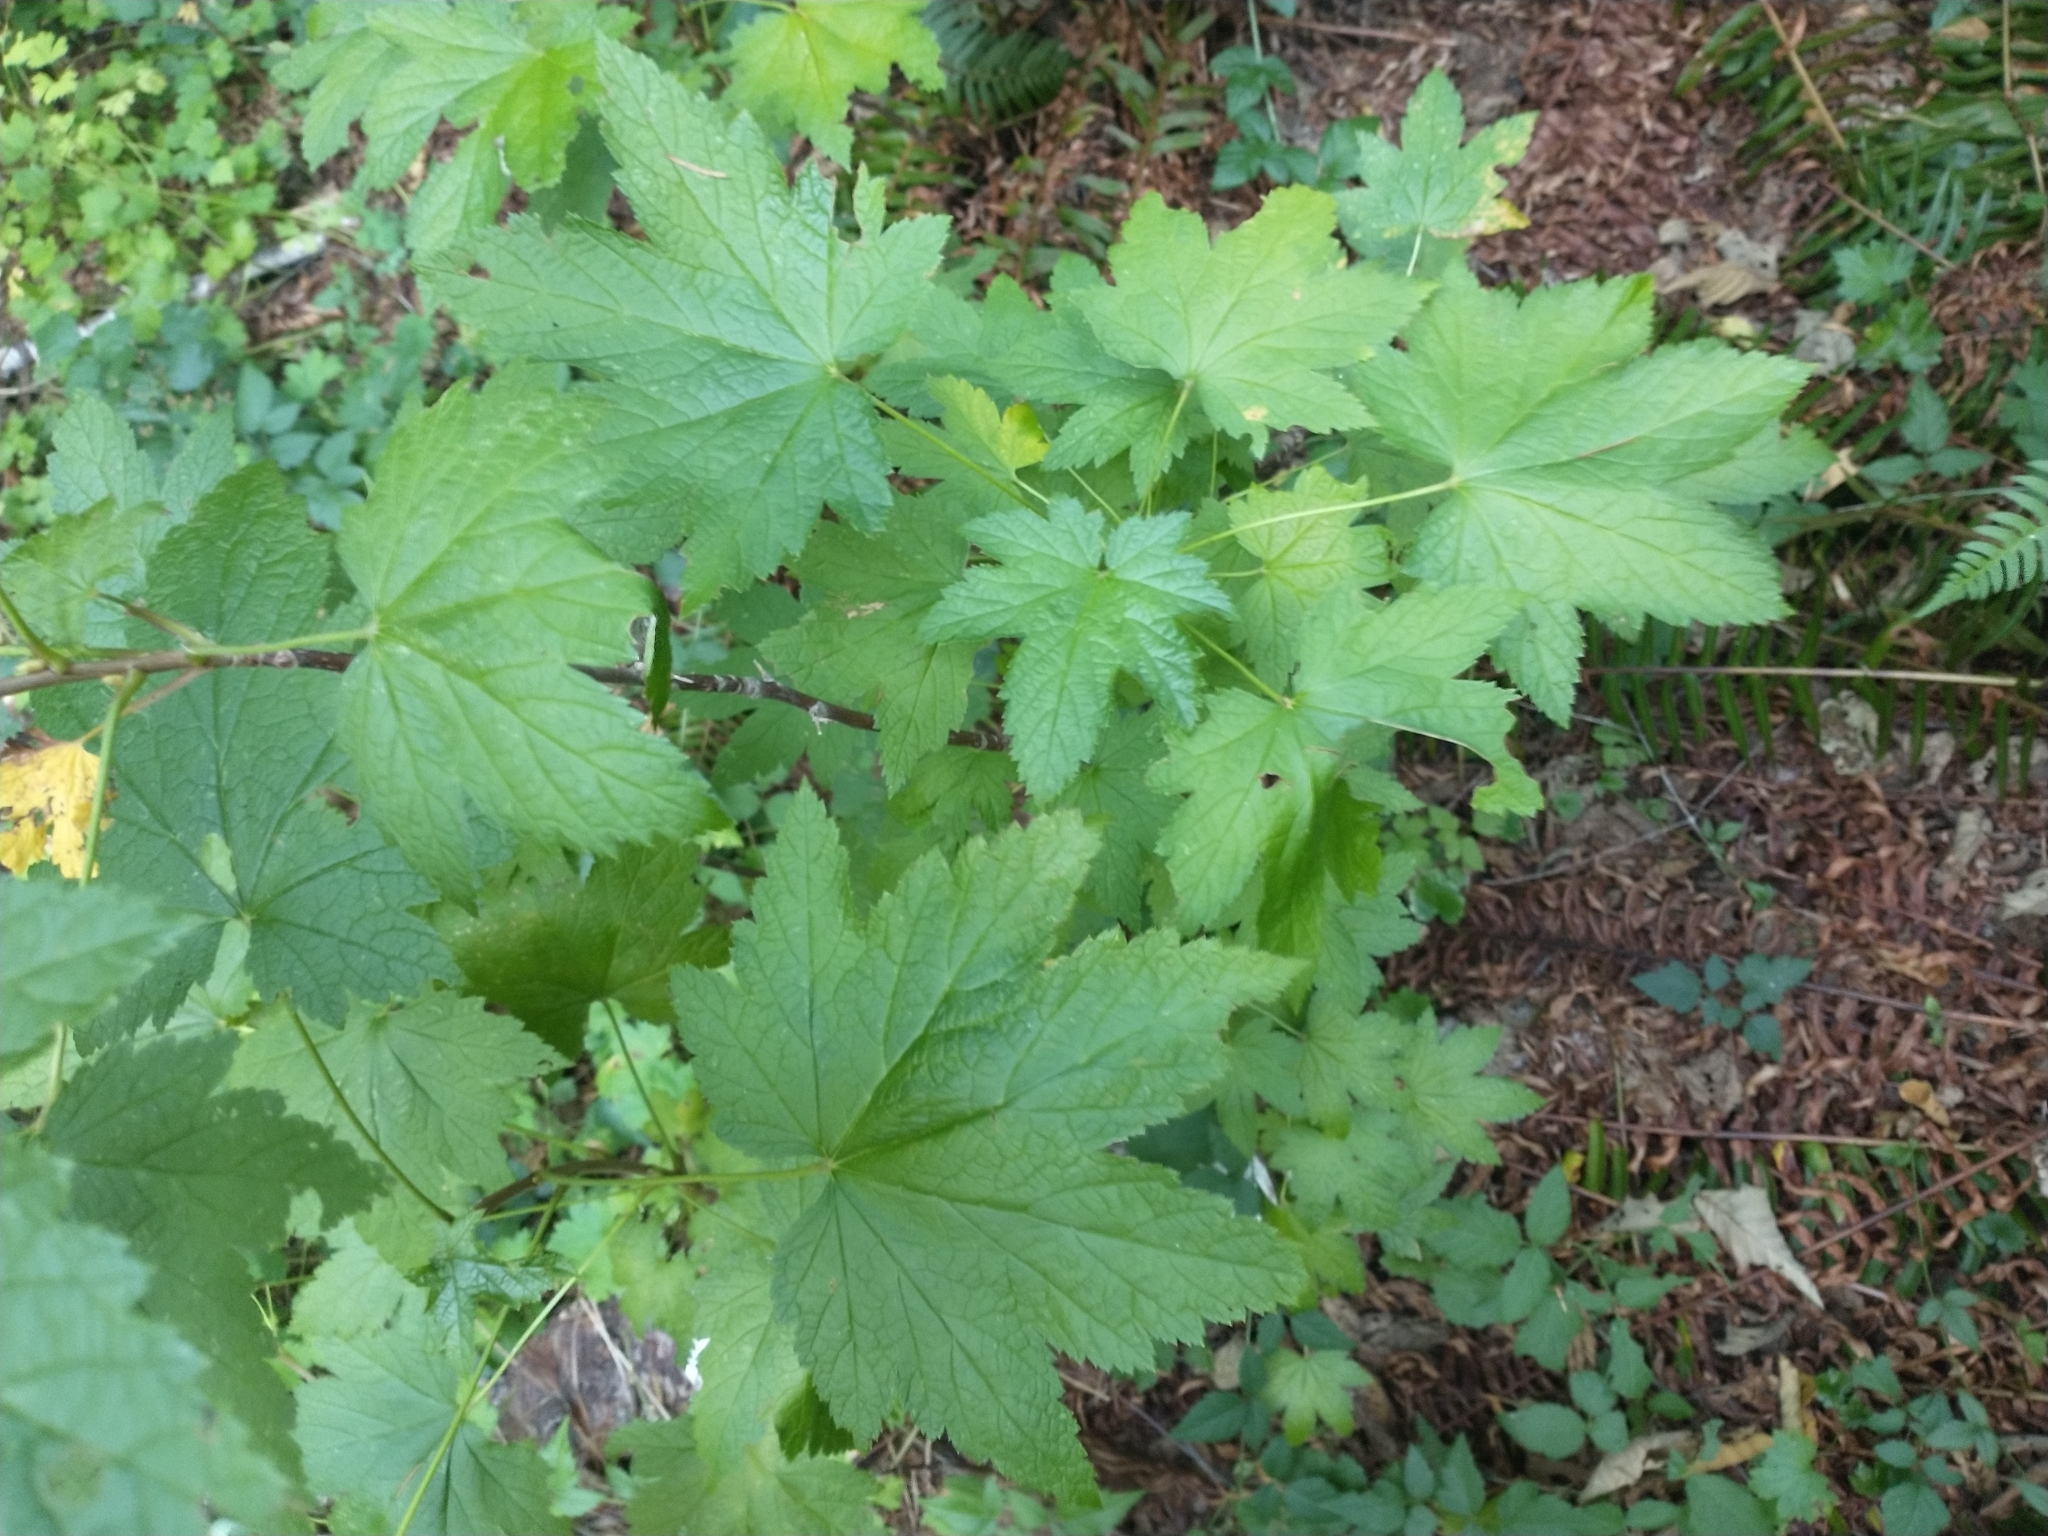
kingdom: Plantae
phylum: Tracheophyta
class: Magnoliopsida
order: Saxifragales
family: Grossulariaceae
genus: Ribes
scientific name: Ribes bracteosum
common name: California black currant
